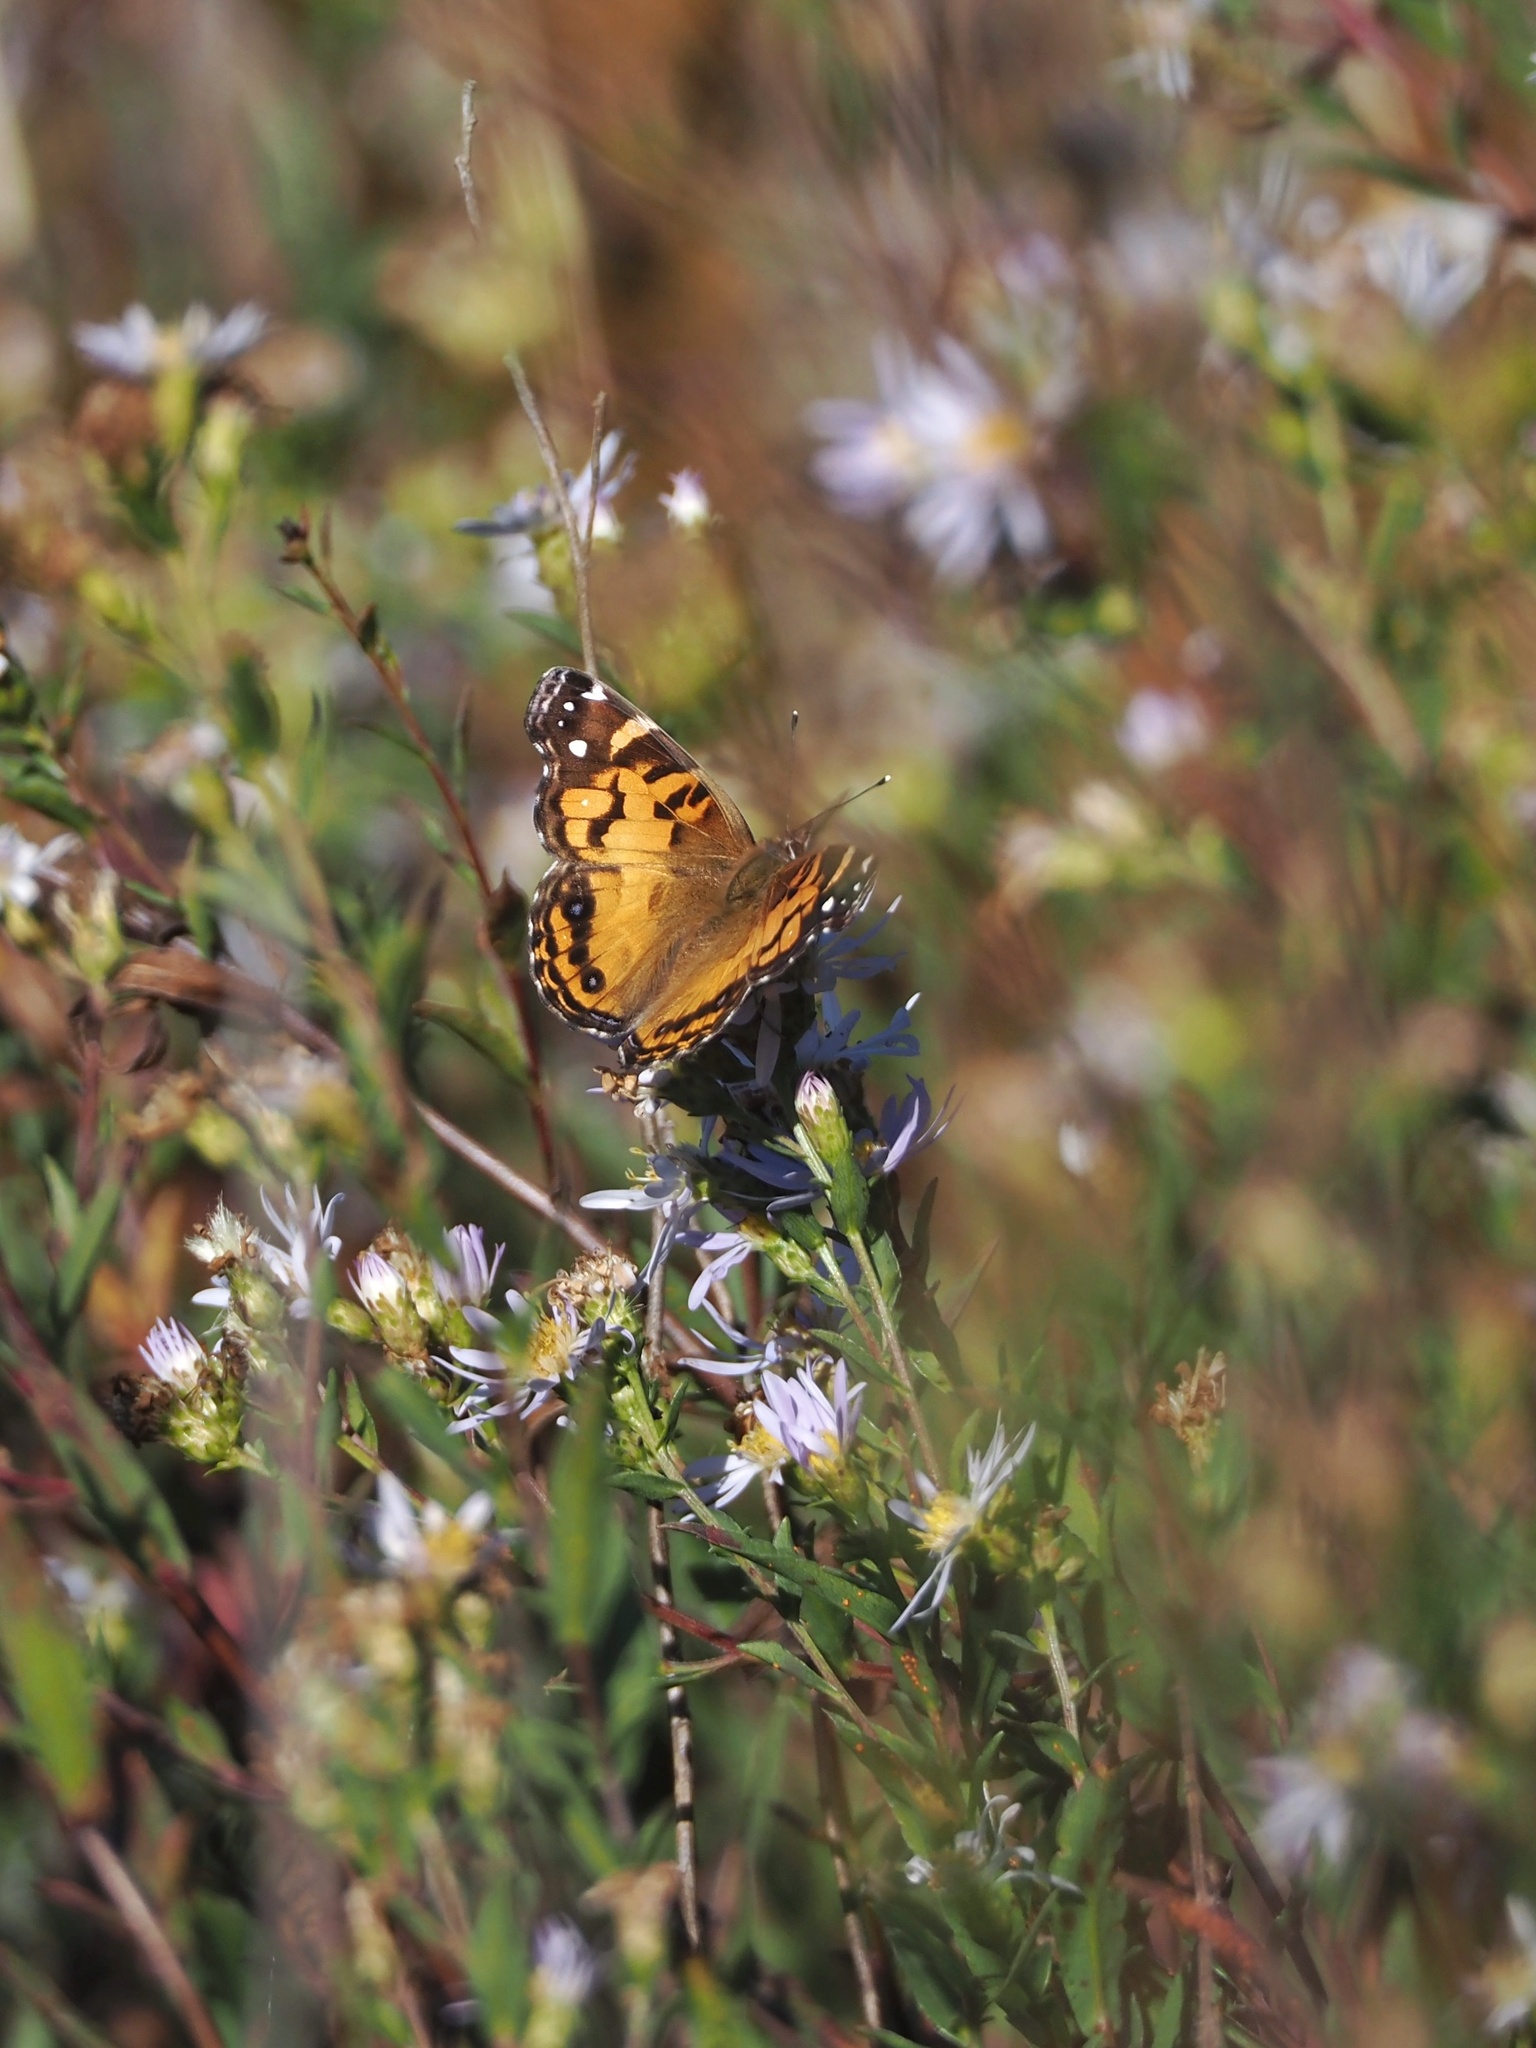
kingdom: Animalia
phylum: Arthropoda
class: Insecta
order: Lepidoptera
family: Nymphalidae
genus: Vanessa
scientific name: Vanessa virginiensis
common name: American lady
